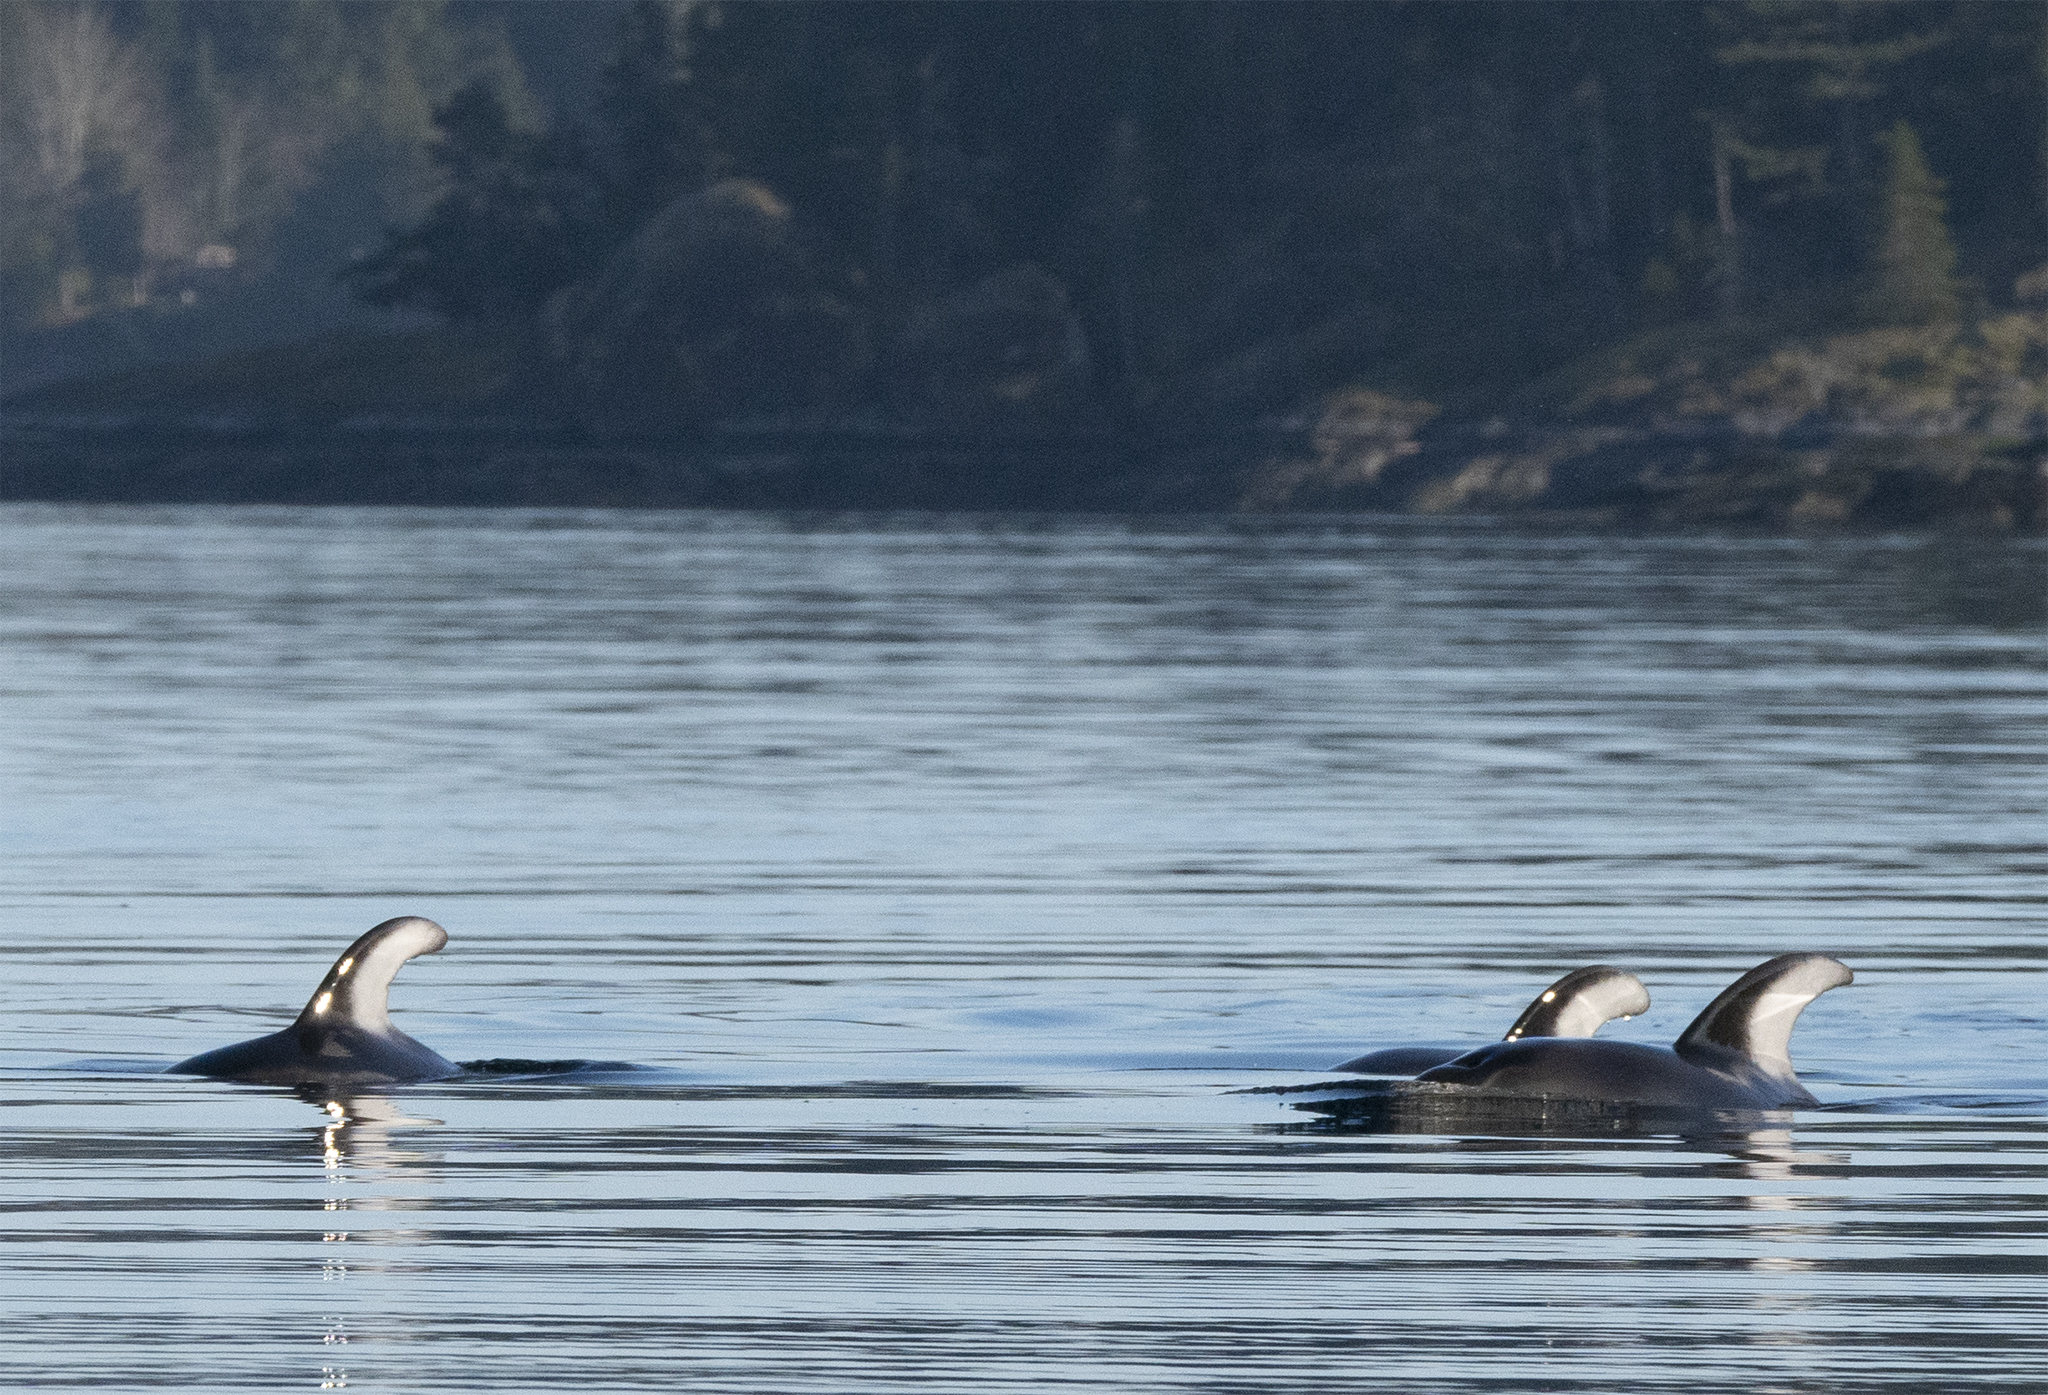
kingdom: Animalia
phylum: Chordata
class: Mammalia
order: Cetacea
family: Delphinidae
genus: Lagenorhynchus
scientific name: Lagenorhynchus obliquidens
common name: Pacific white-sided dolphin
